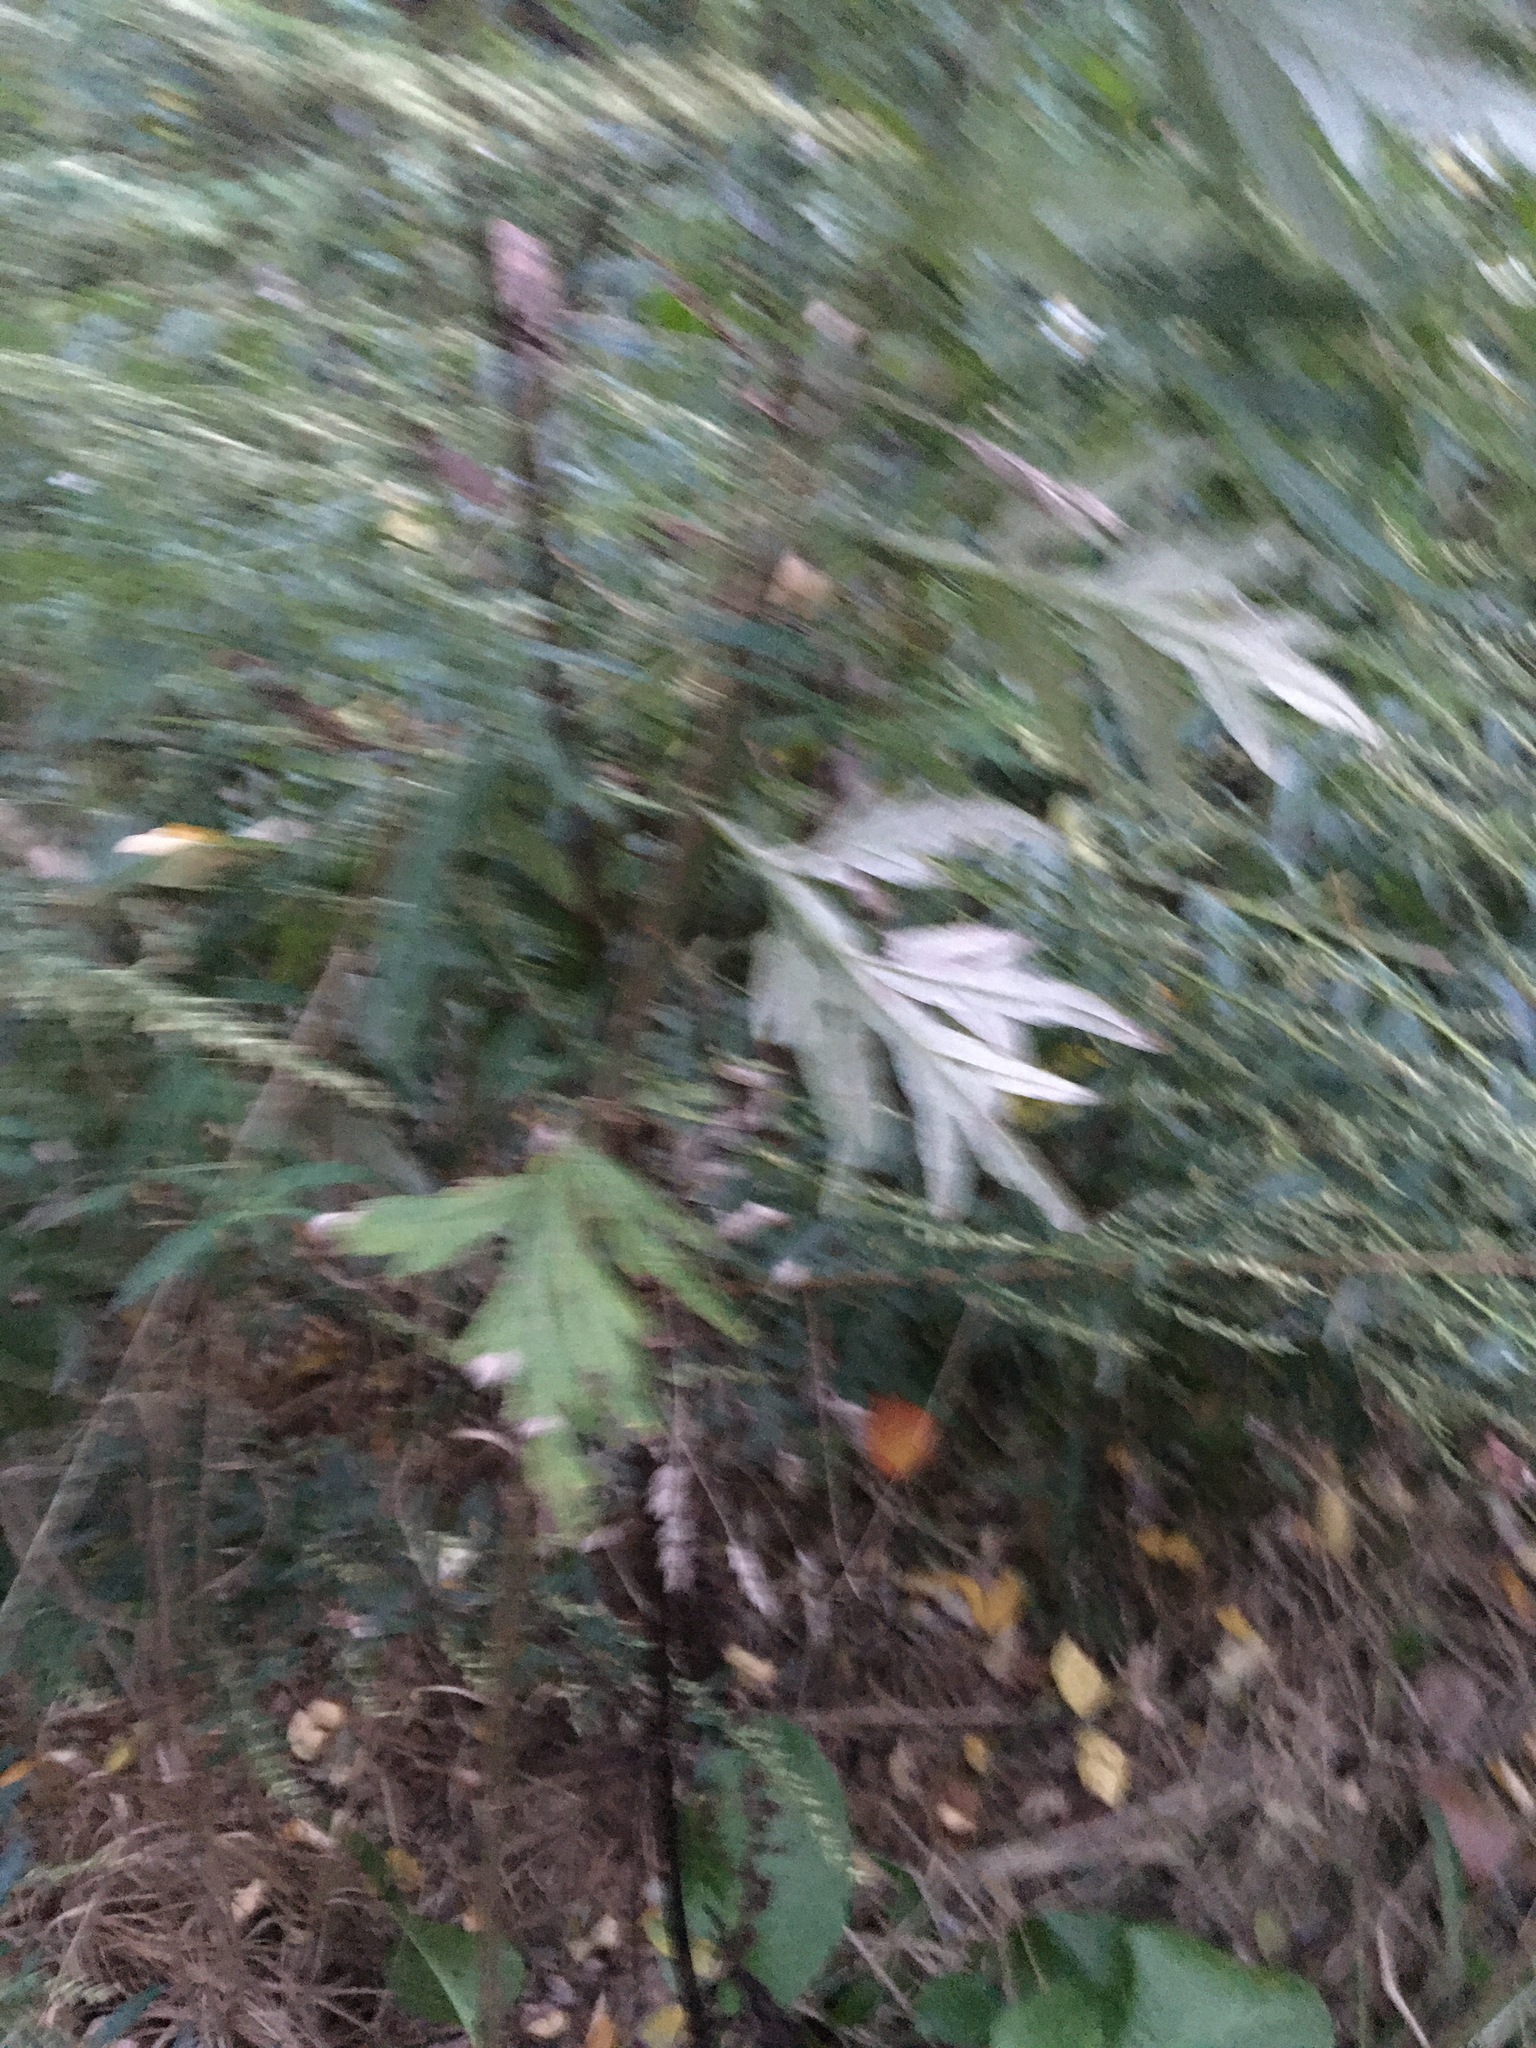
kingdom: Plantae
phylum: Tracheophyta
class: Magnoliopsida
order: Asterales
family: Asteraceae
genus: Artemisia
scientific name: Artemisia vulgaris
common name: Mugwort
